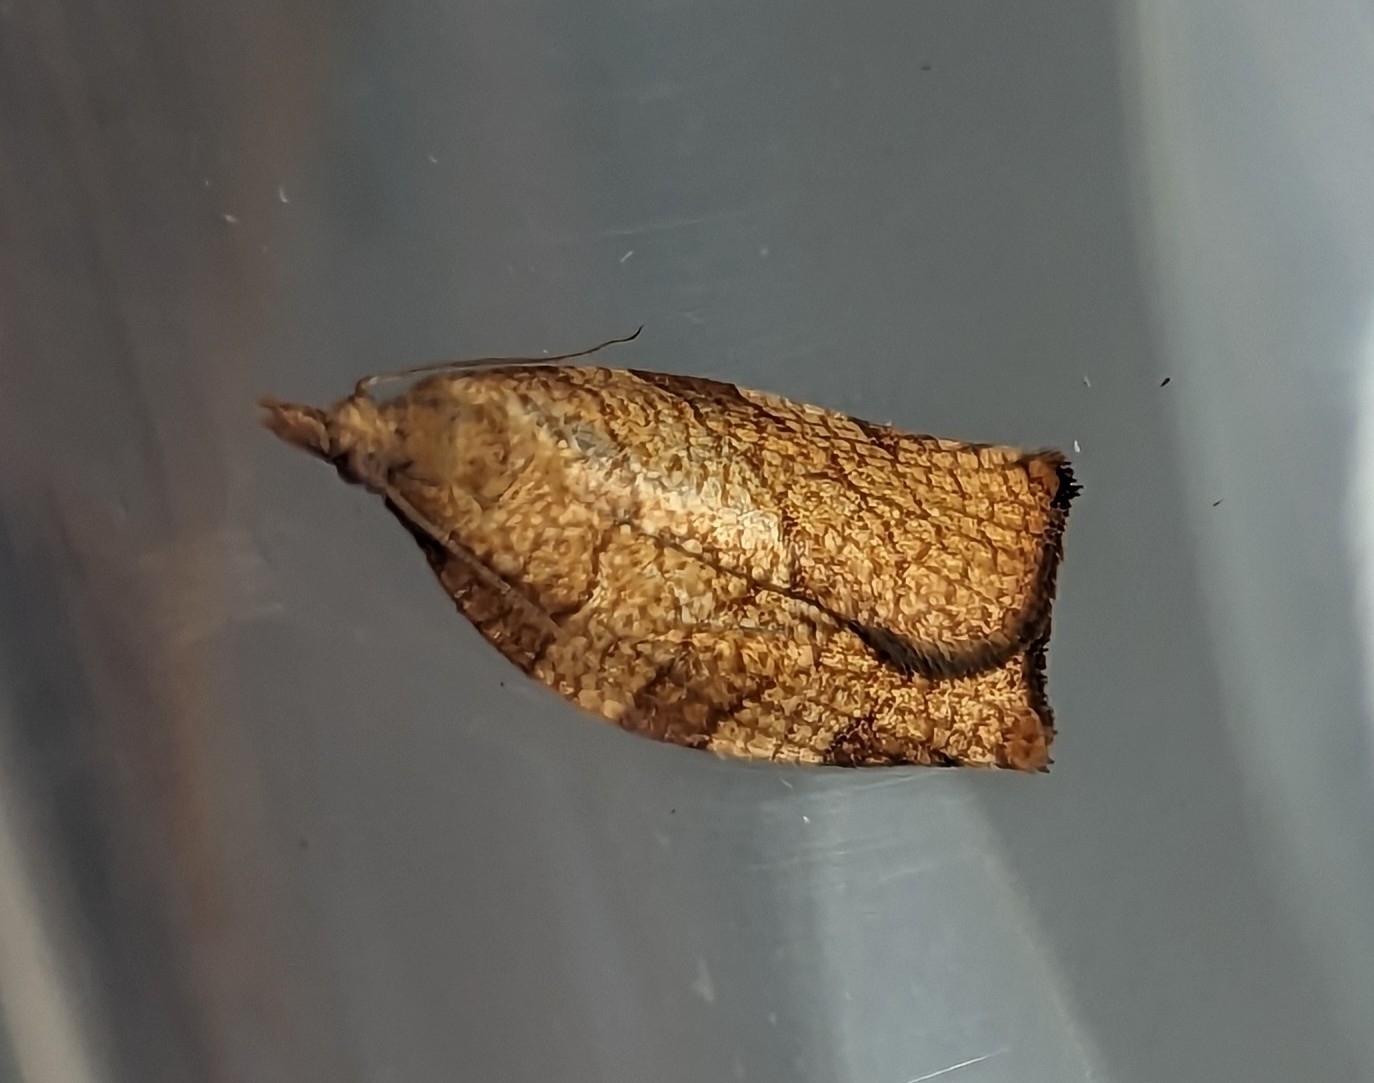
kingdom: Animalia
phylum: Arthropoda
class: Insecta
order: Lepidoptera
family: Tortricidae
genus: Pandemis
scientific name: Pandemis corylana
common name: Chequered fruit-tree tortrix
